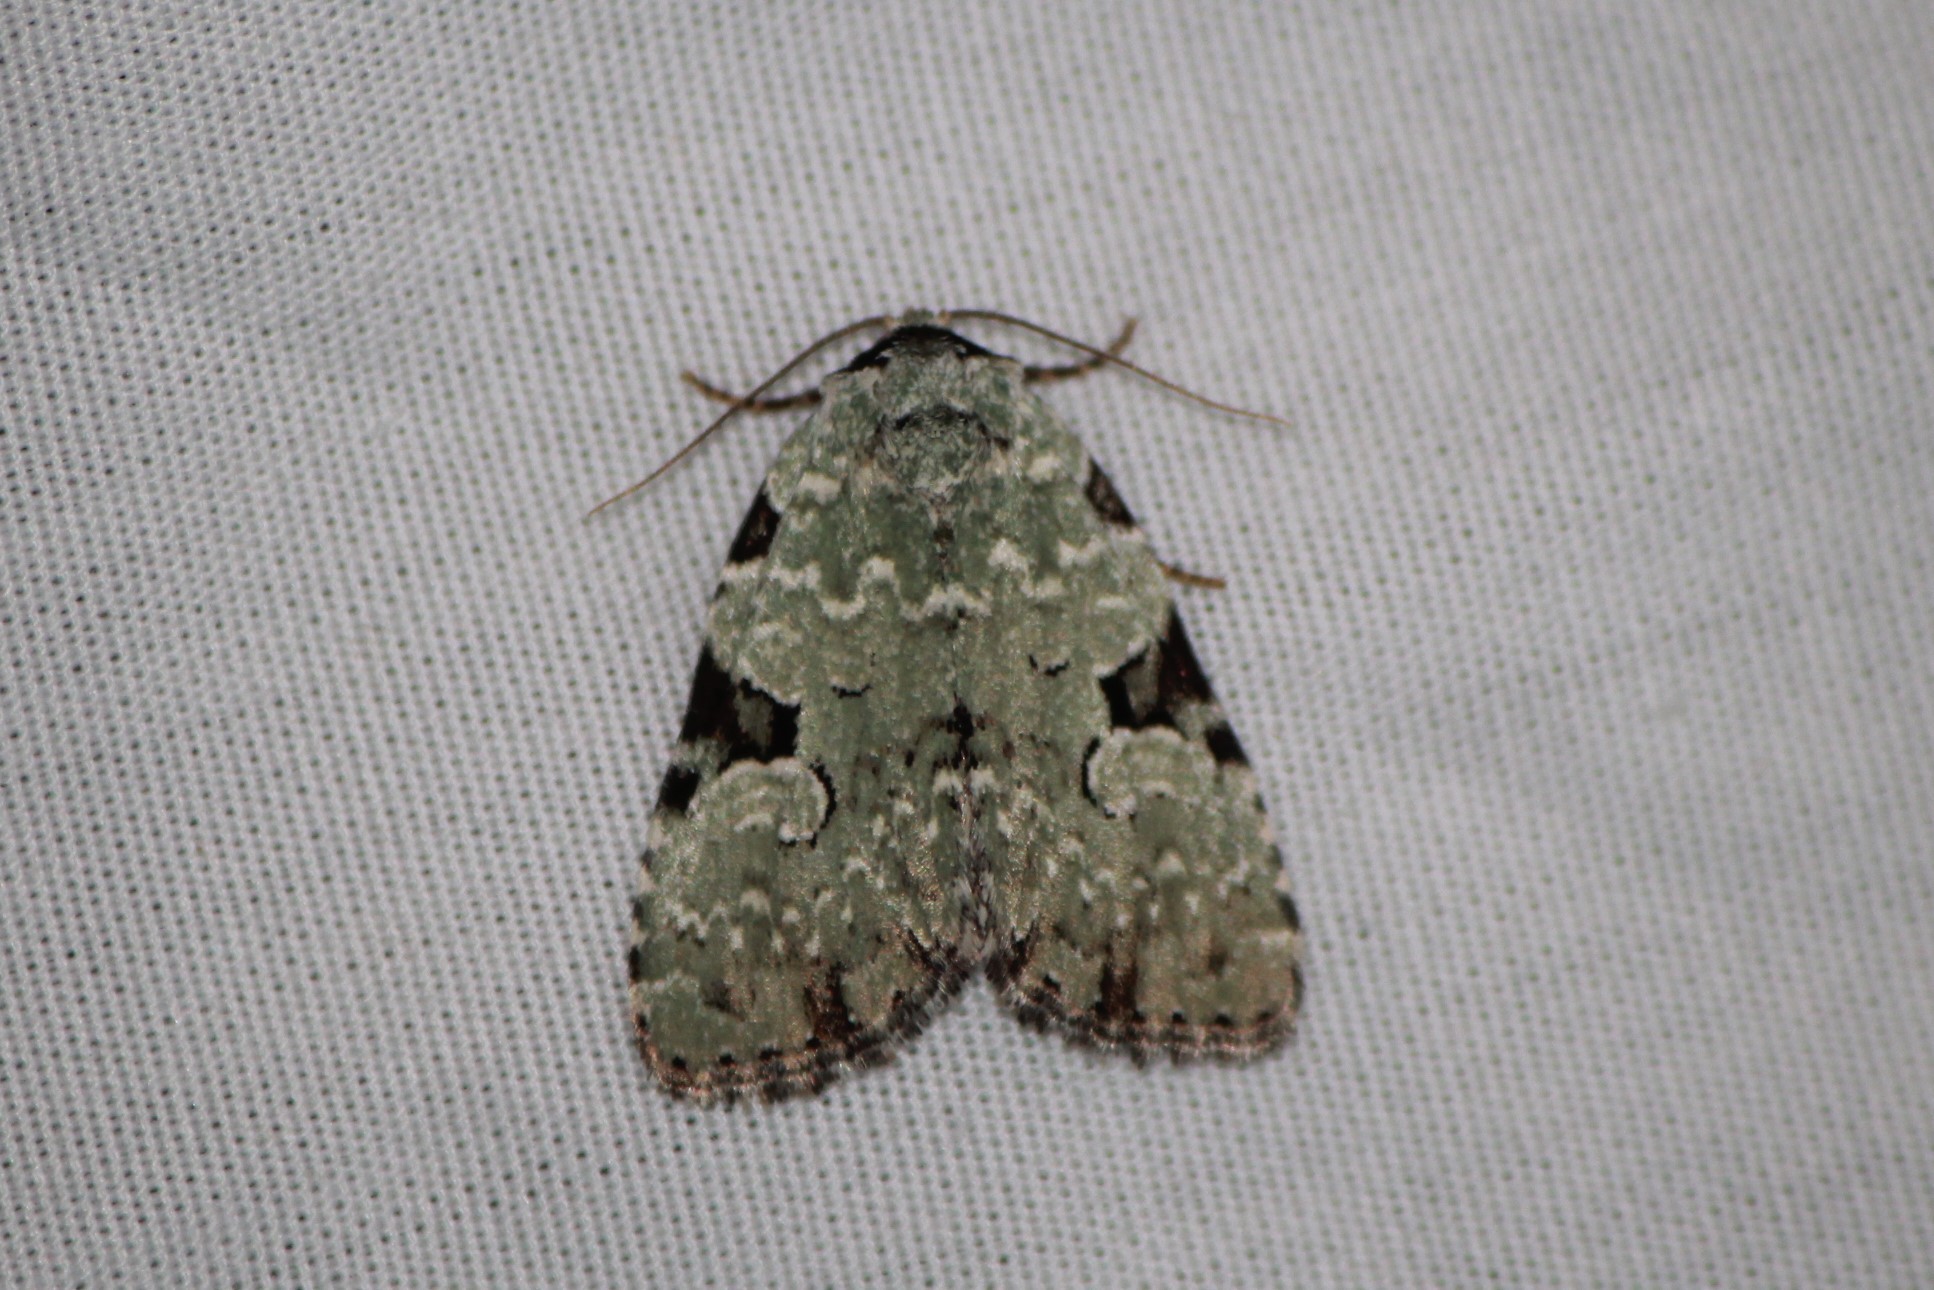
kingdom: Animalia
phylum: Arthropoda
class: Insecta
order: Lepidoptera
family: Noctuidae
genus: Leuconycta
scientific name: Leuconycta diphteroides
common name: Green leuconycta moth
